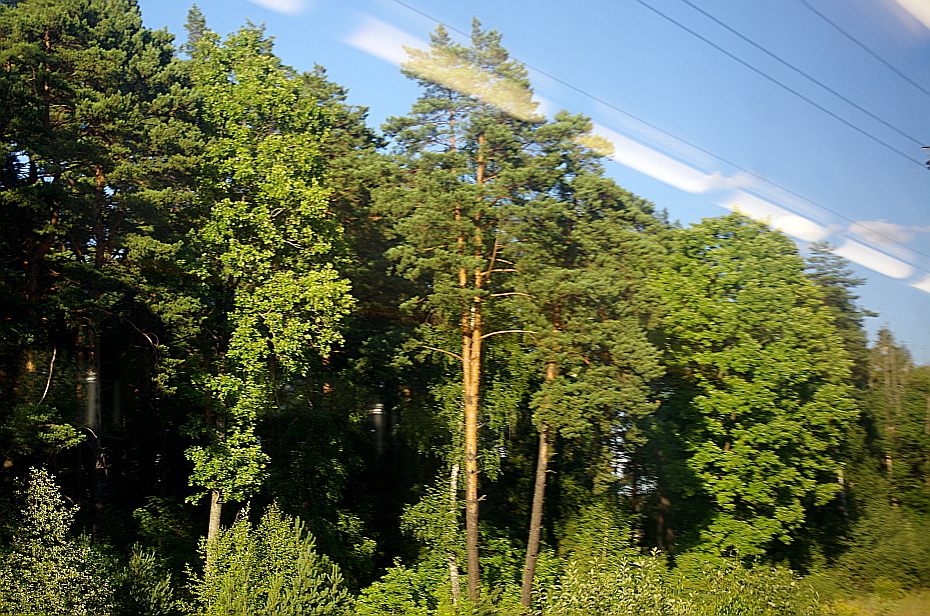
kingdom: Plantae
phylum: Tracheophyta
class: Pinopsida
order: Pinales
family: Pinaceae
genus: Pinus
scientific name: Pinus sylvestris
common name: Scots pine
